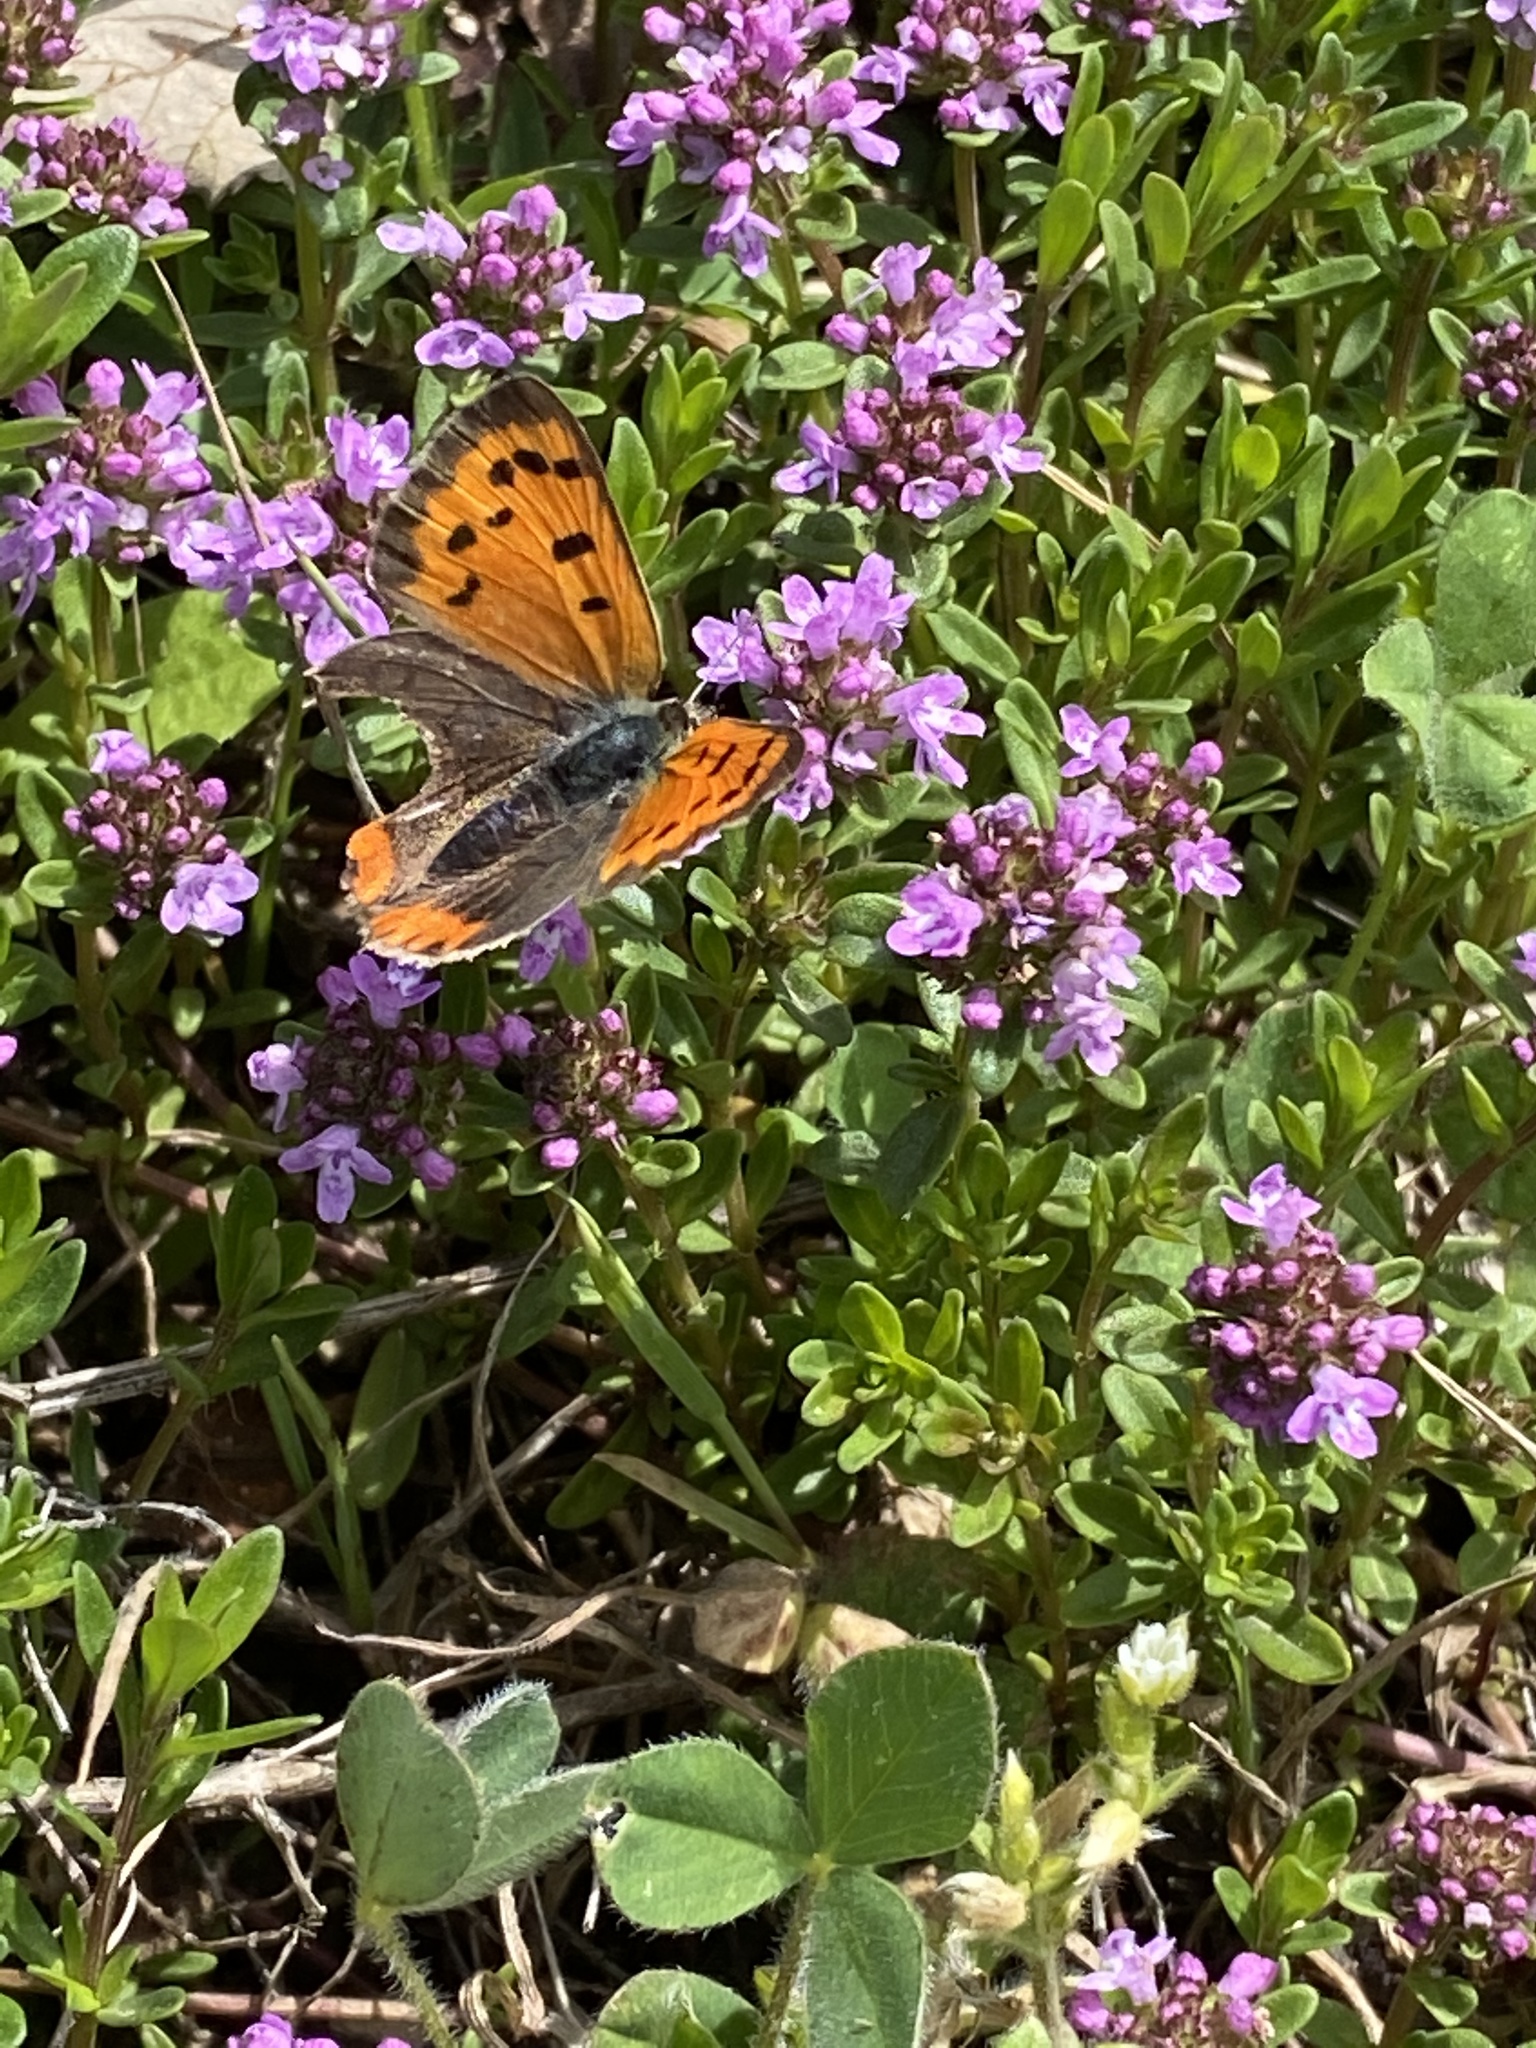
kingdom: Animalia
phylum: Arthropoda
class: Insecta
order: Lepidoptera
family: Lycaenidae
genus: Lycaena
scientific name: Lycaena phlaeas
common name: Small copper
